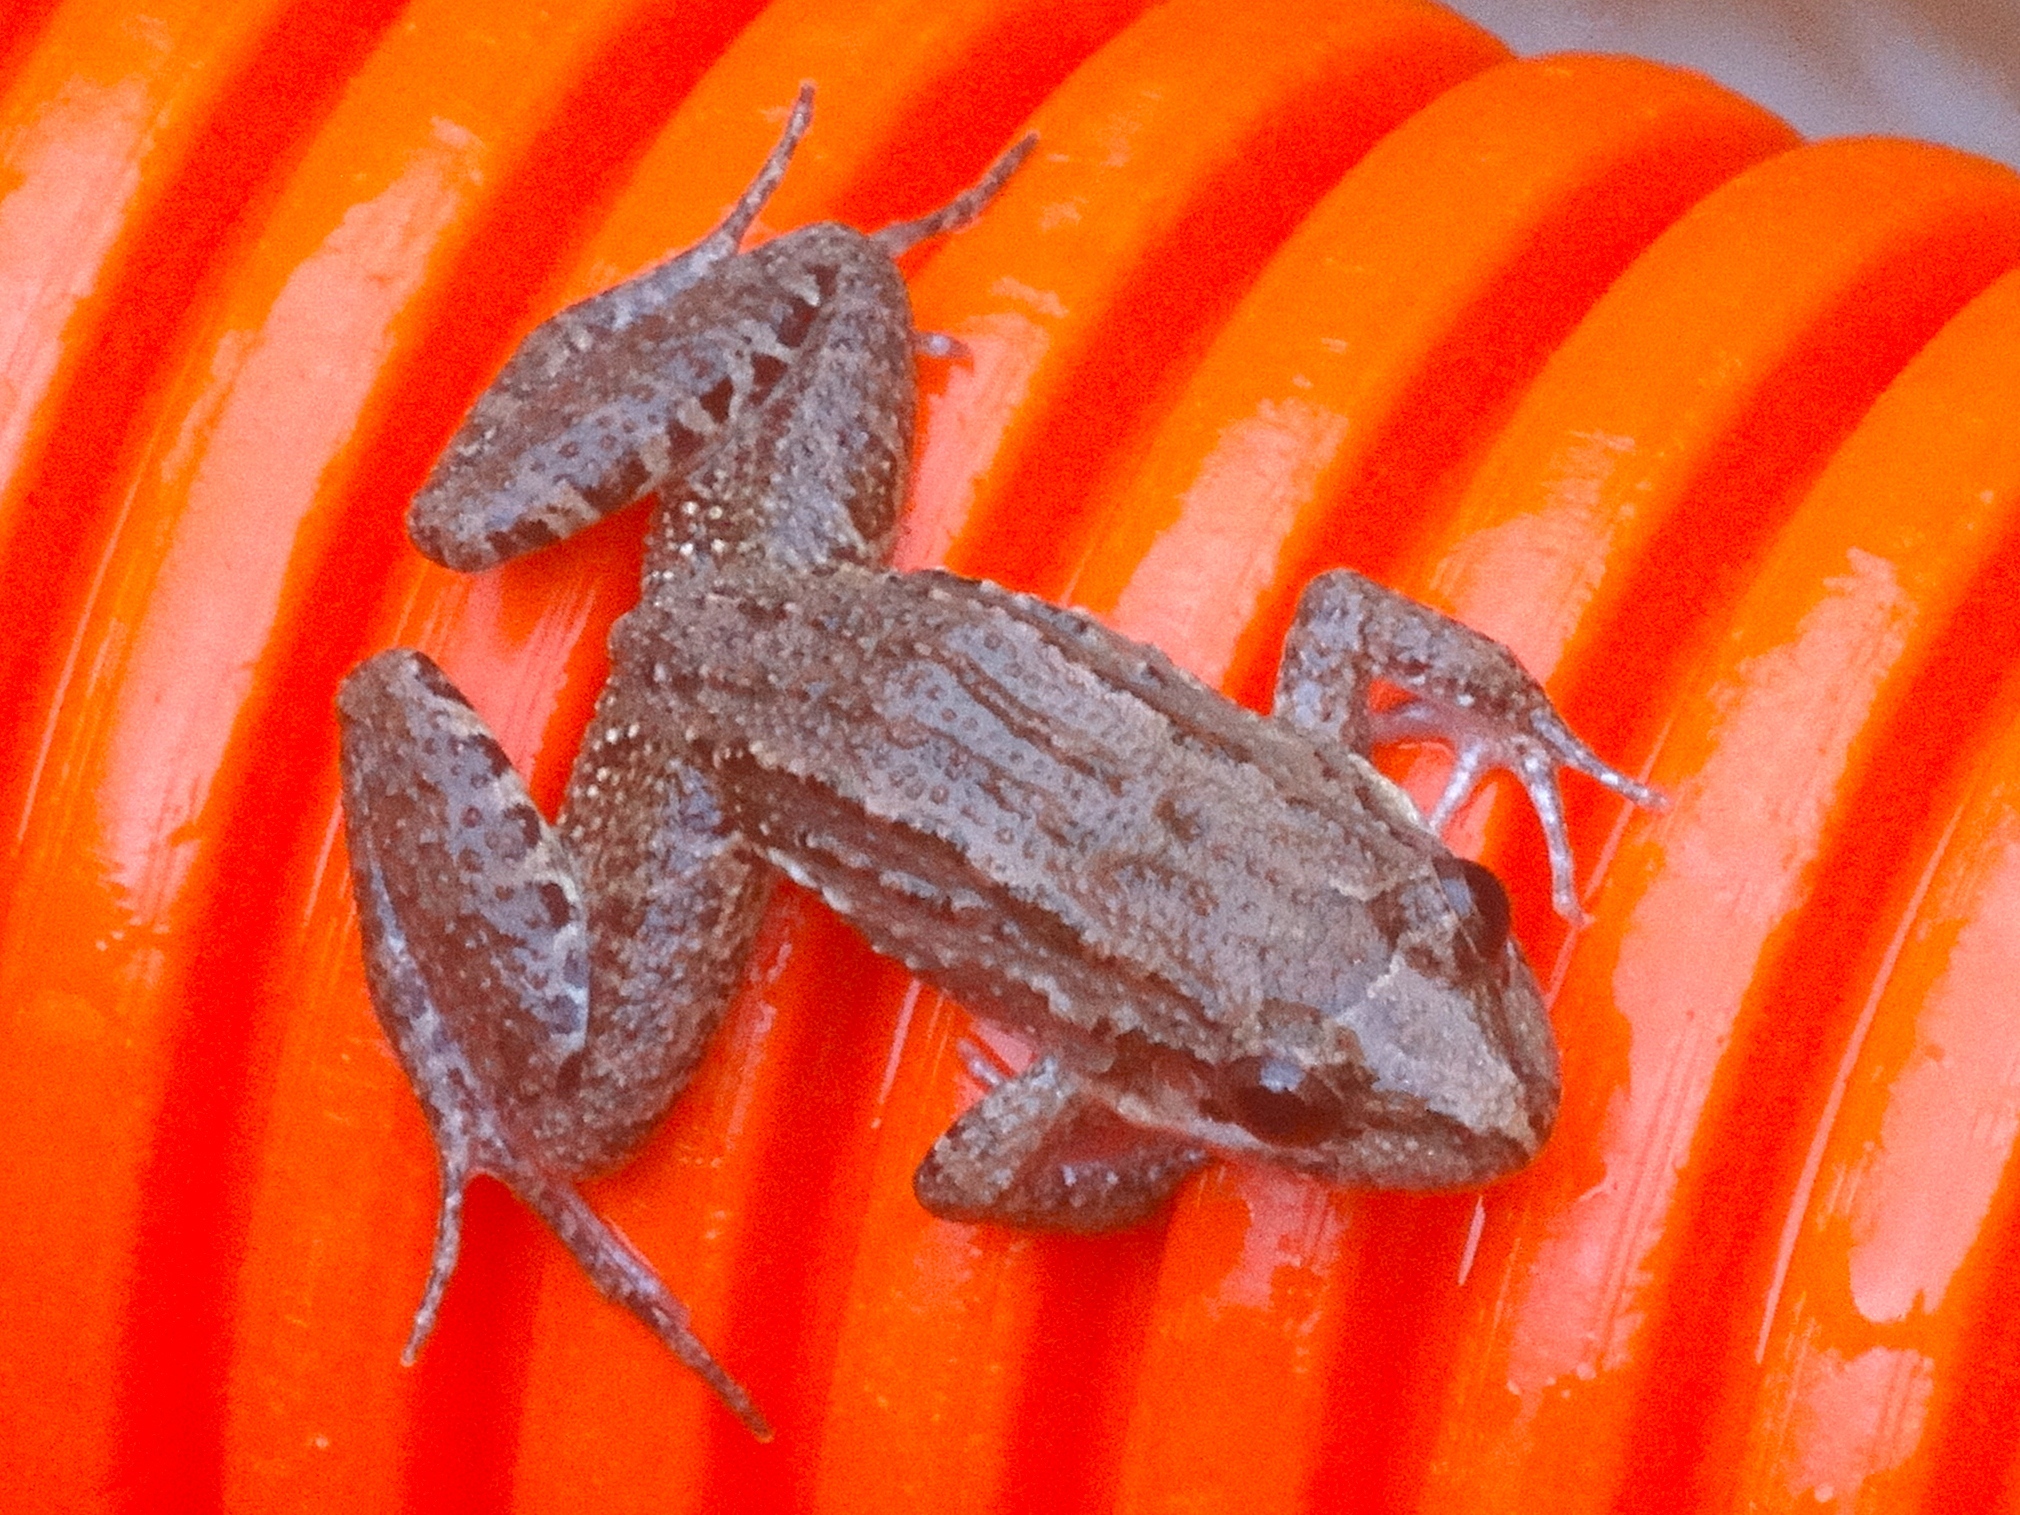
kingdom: Animalia
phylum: Chordata
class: Amphibia
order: Anura
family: Leptodactylidae
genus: Leptodactylus
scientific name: Leptodactylus melanonotus
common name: Fringe-toed foamfrog
